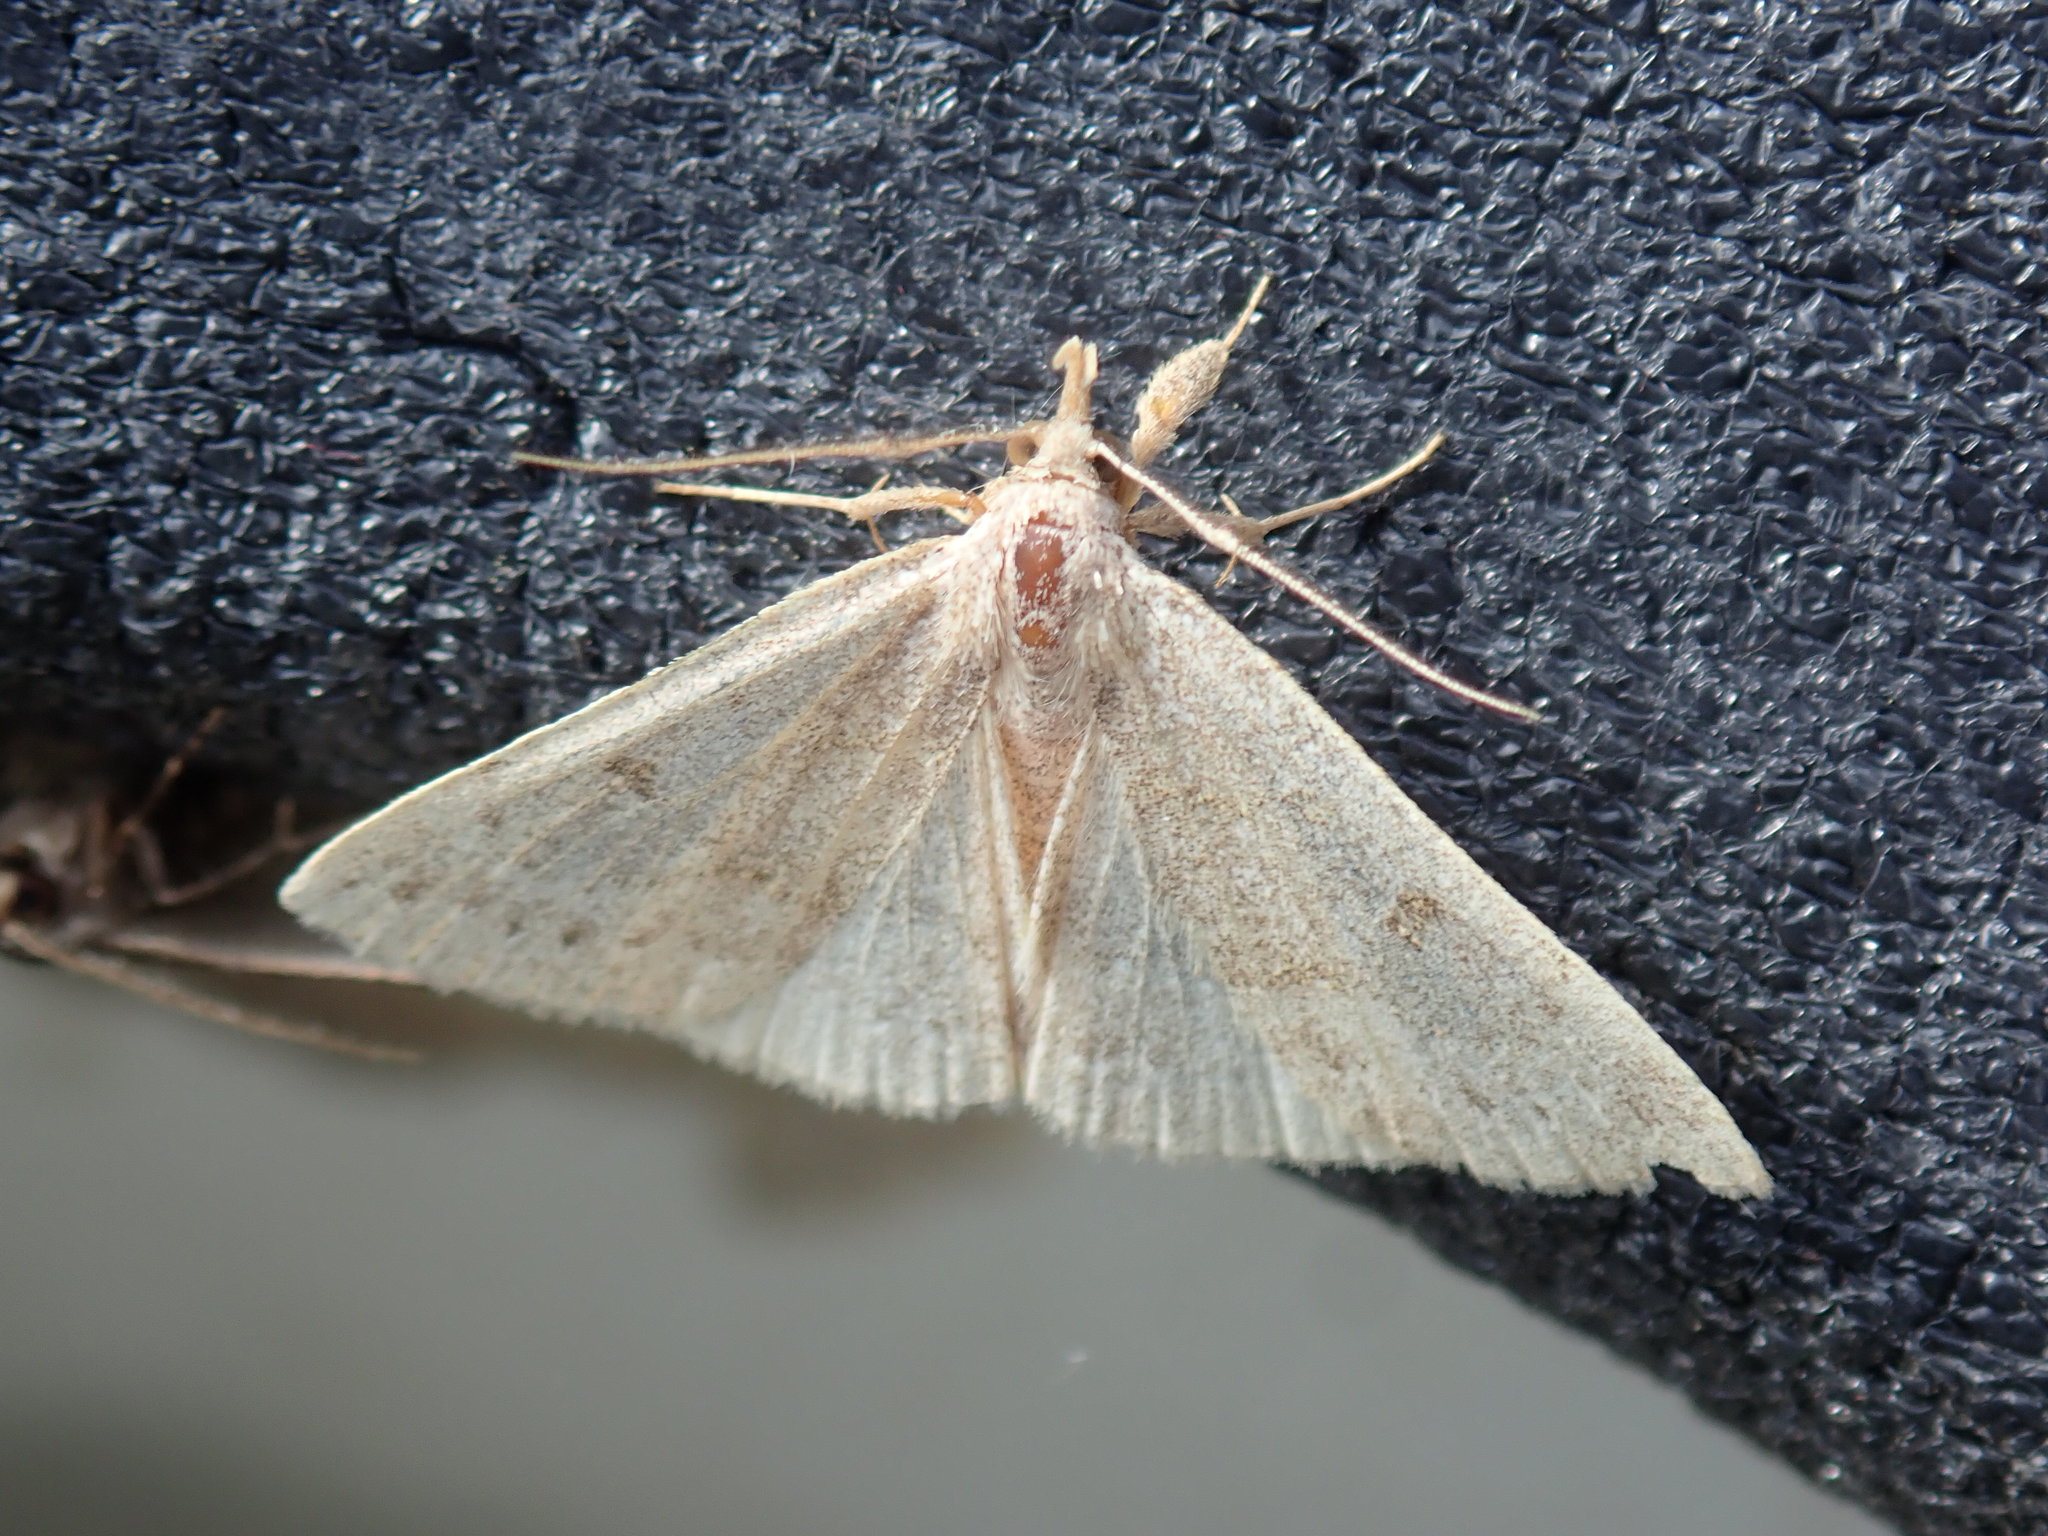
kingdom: Animalia
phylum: Arthropoda
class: Insecta
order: Lepidoptera
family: Erebidae
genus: Macrochilo
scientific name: Macrochilo morbidalis
